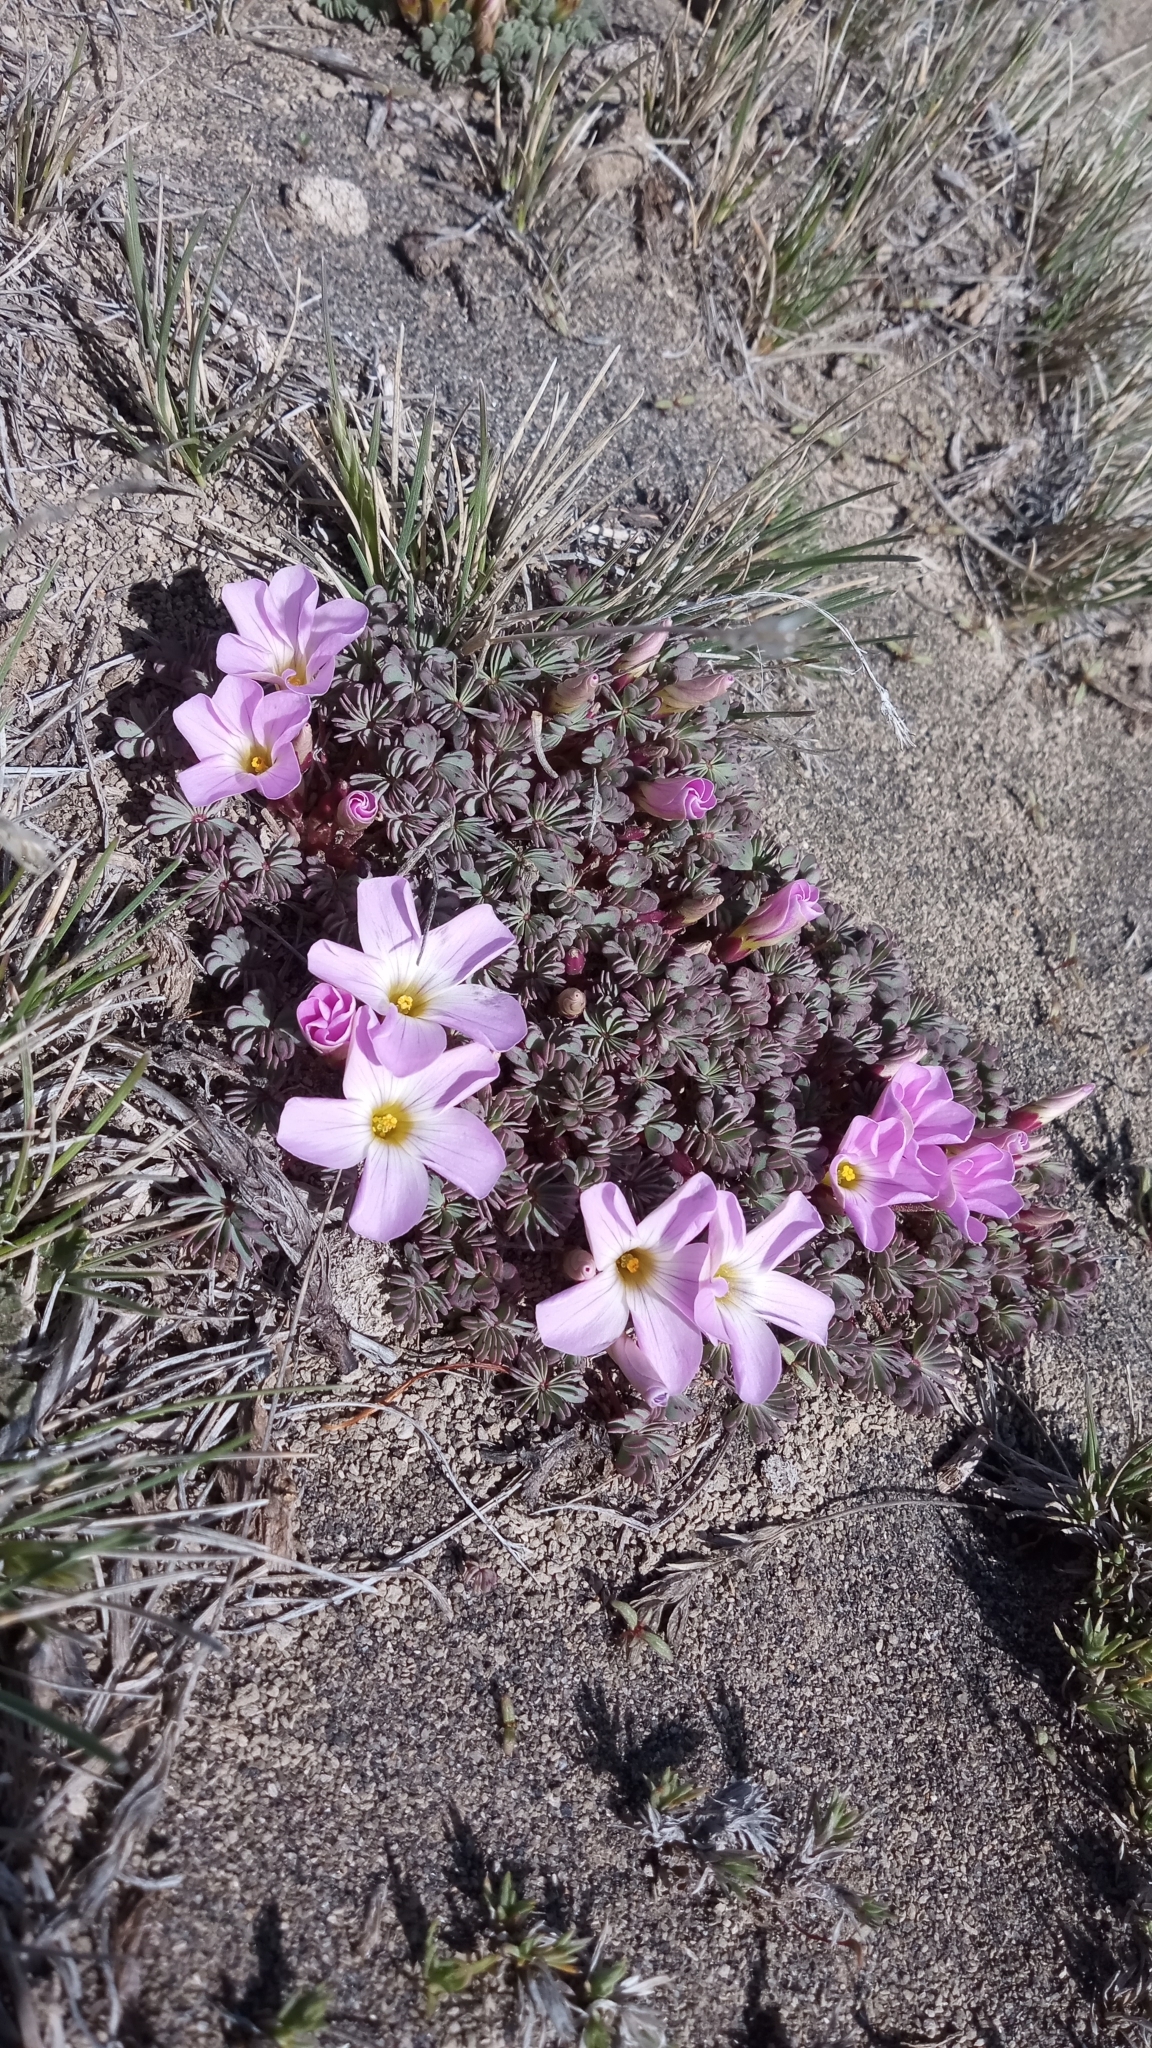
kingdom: Plantae
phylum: Tracheophyta
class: Magnoliopsida
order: Oxalidales
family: Oxalidaceae
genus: Oxalis
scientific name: Oxalis adenophylla
